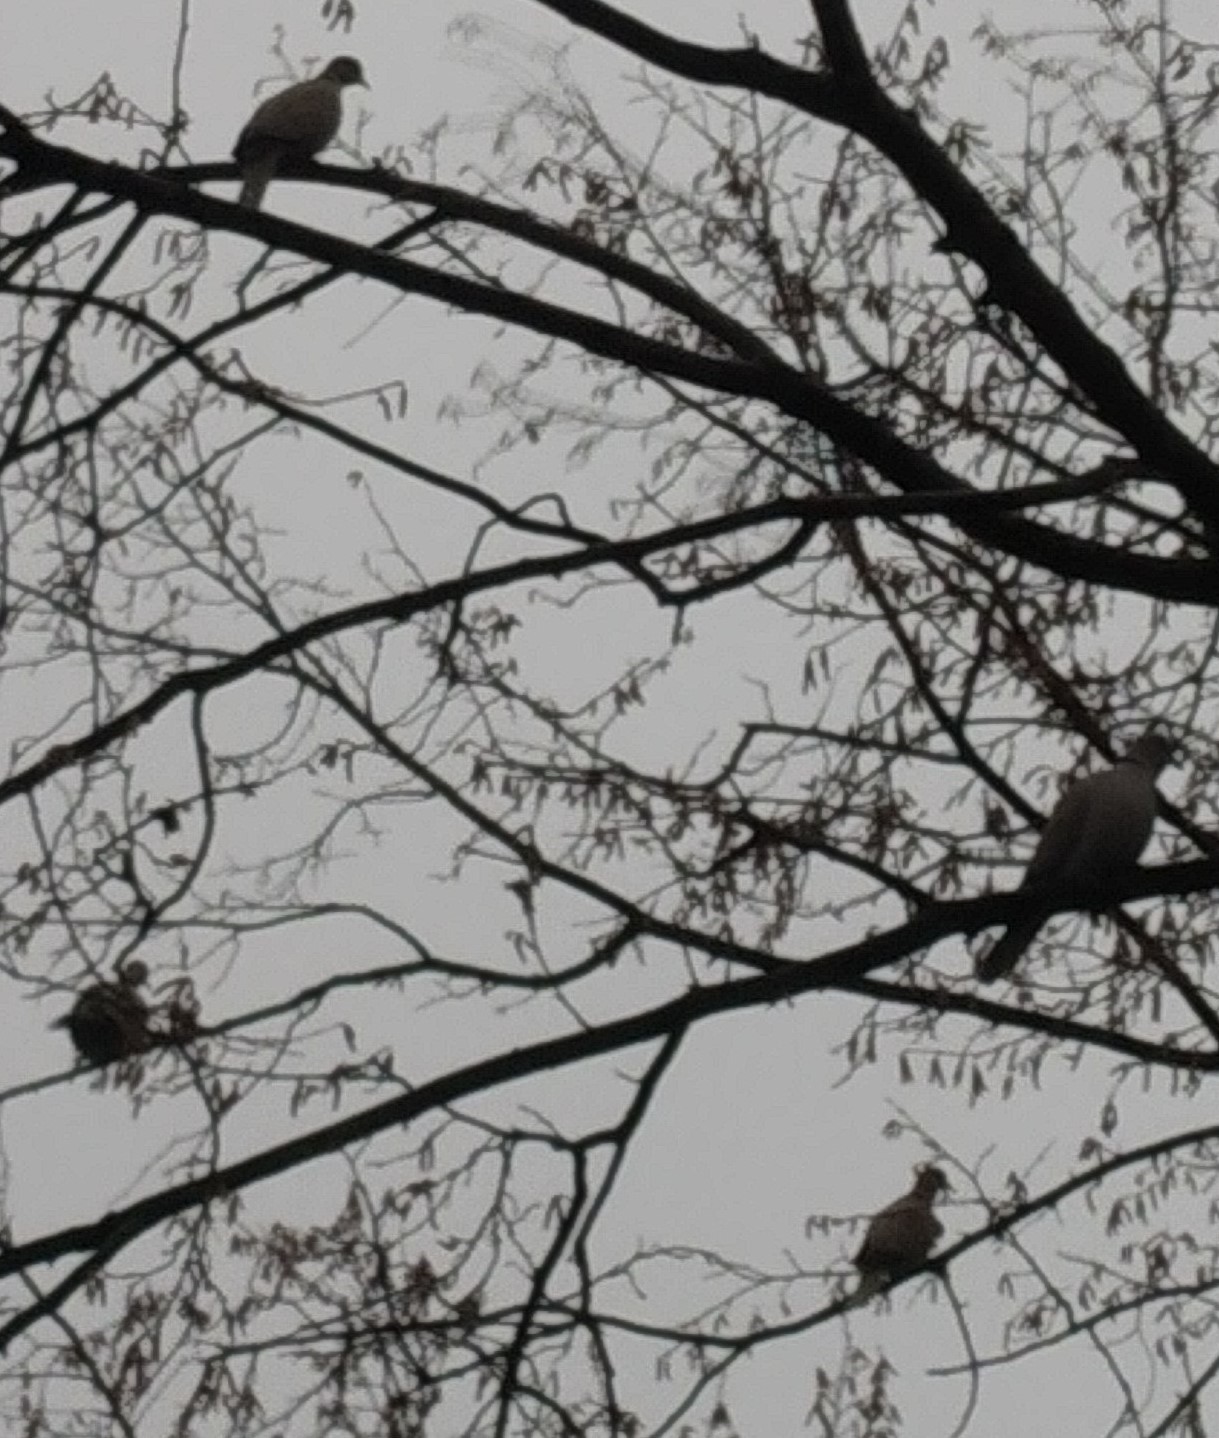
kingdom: Animalia
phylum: Chordata
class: Aves
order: Columbiformes
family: Columbidae
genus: Streptopelia
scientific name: Streptopelia decaocto
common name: Eurasian collared dove
